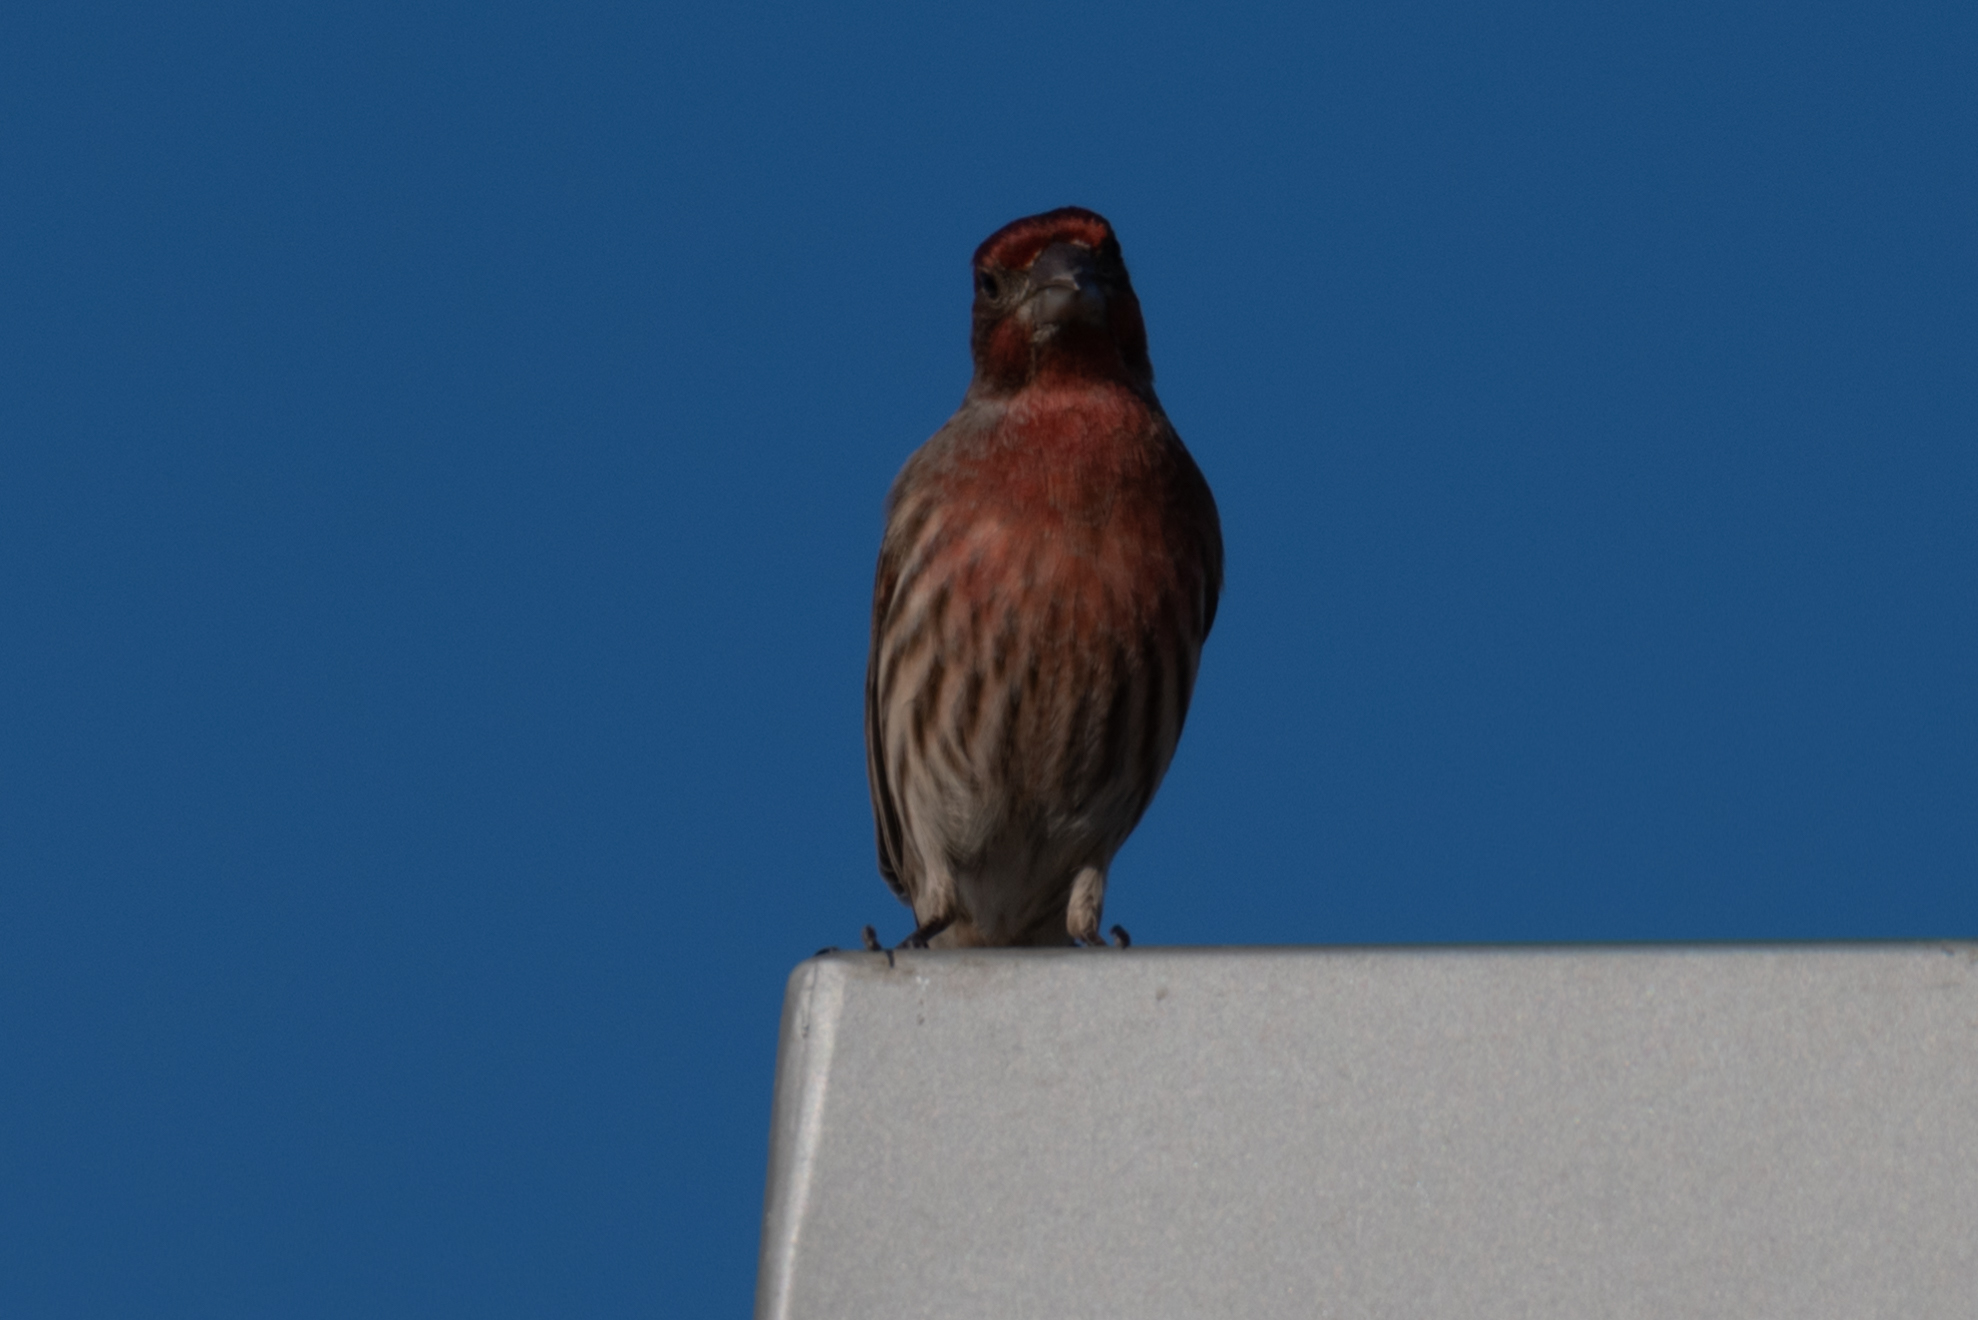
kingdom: Animalia
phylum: Chordata
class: Aves
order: Passeriformes
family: Fringillidae
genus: Haemorhous
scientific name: Haemorhous mexicanus
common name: House finch
